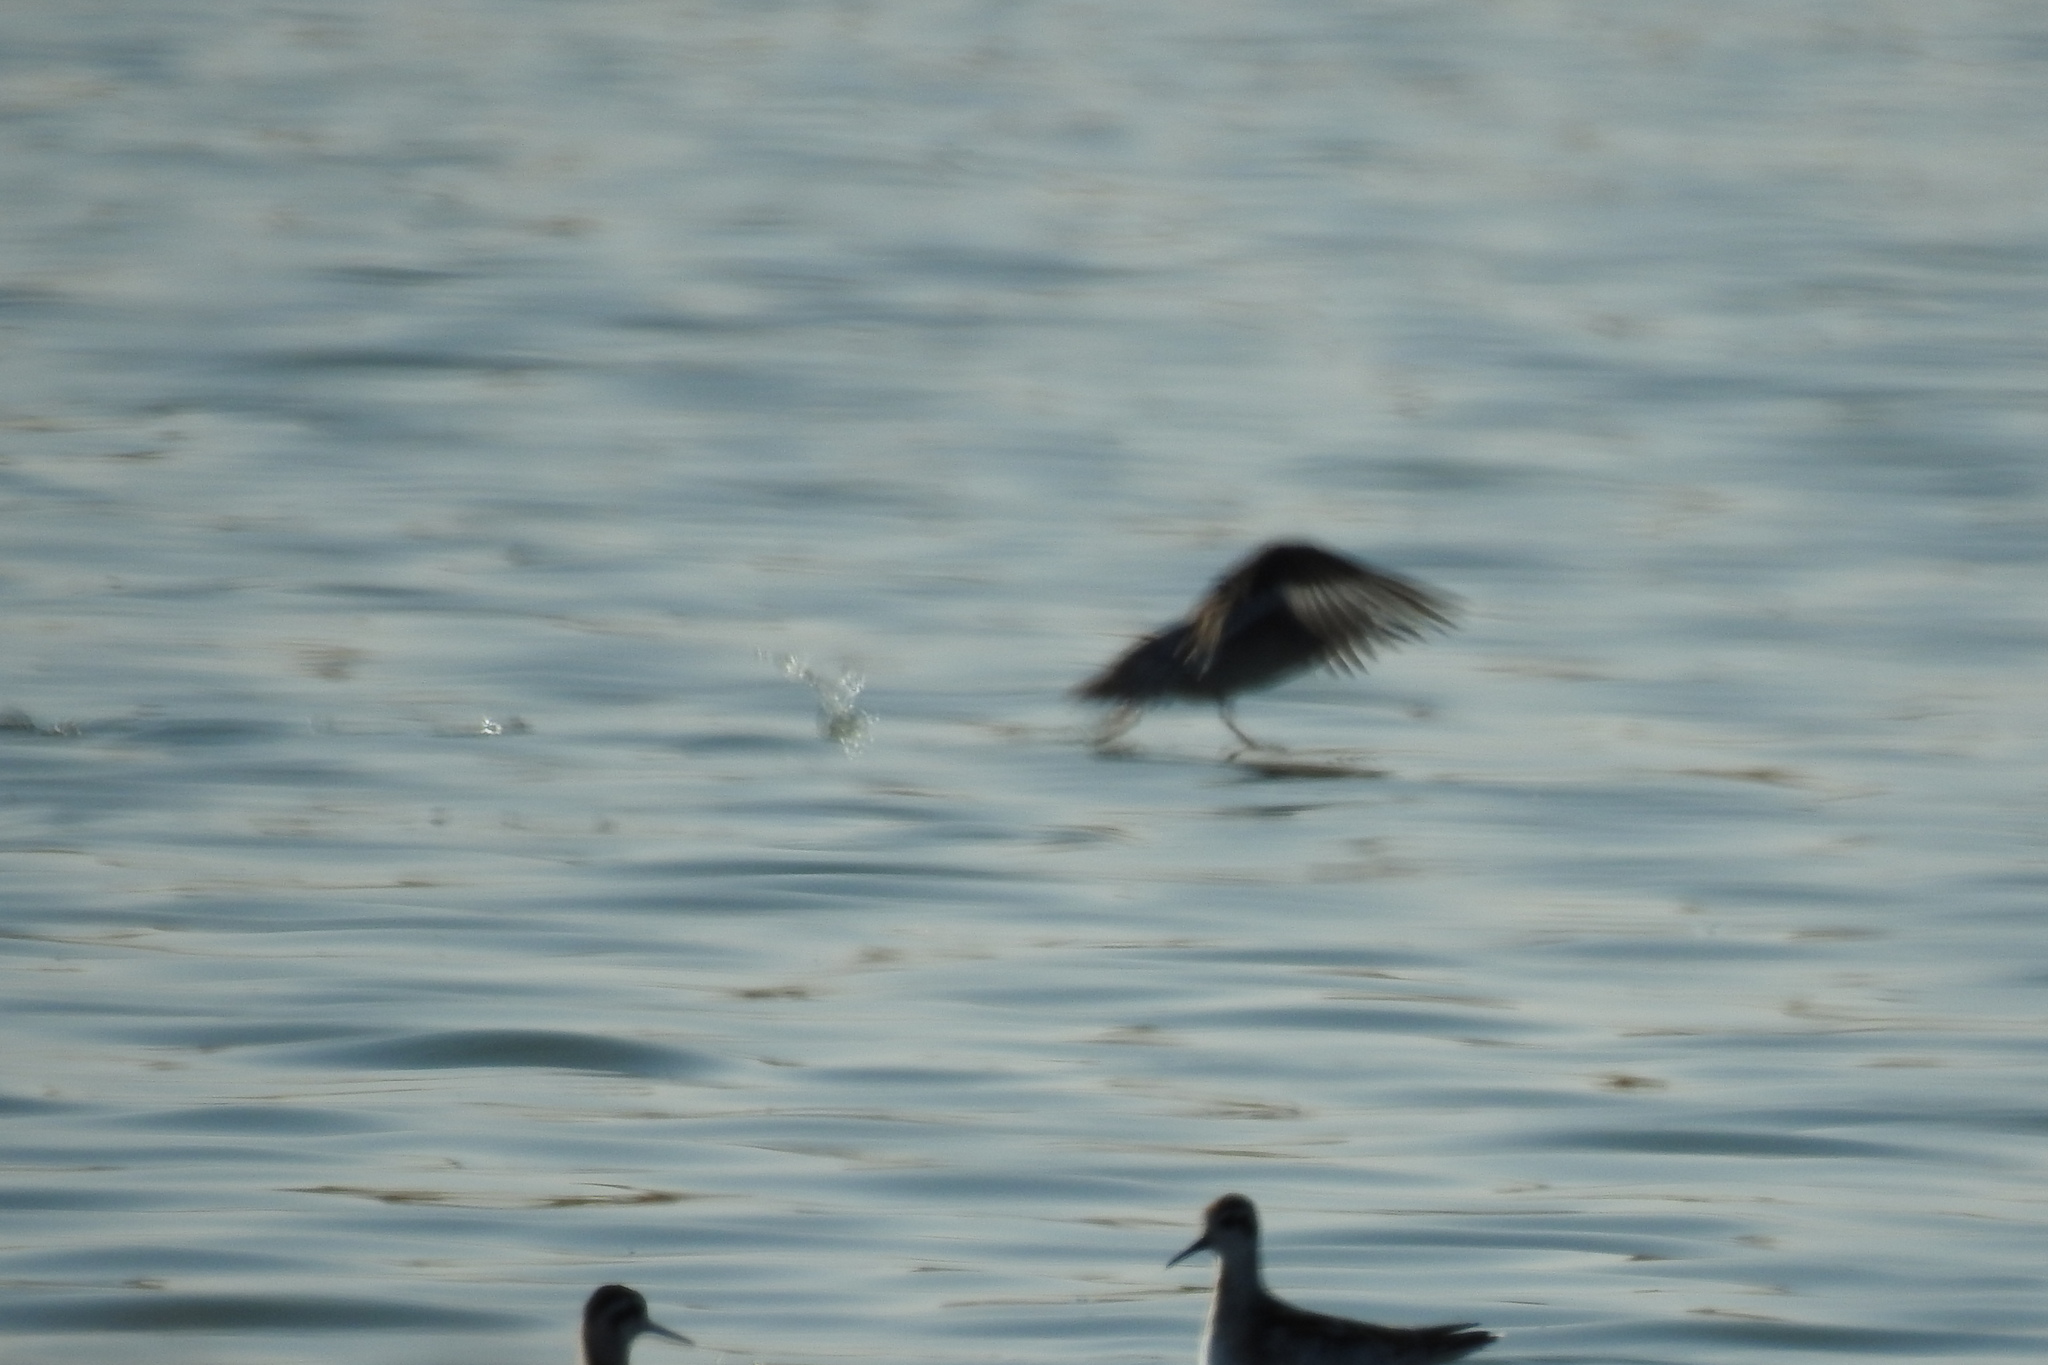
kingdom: Animalia
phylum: Chordata
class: Aves
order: Charadriiformes
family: Scolopacidae
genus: Phalaropus
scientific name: Phalaropus lobatus
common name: Red-necked phalarope
